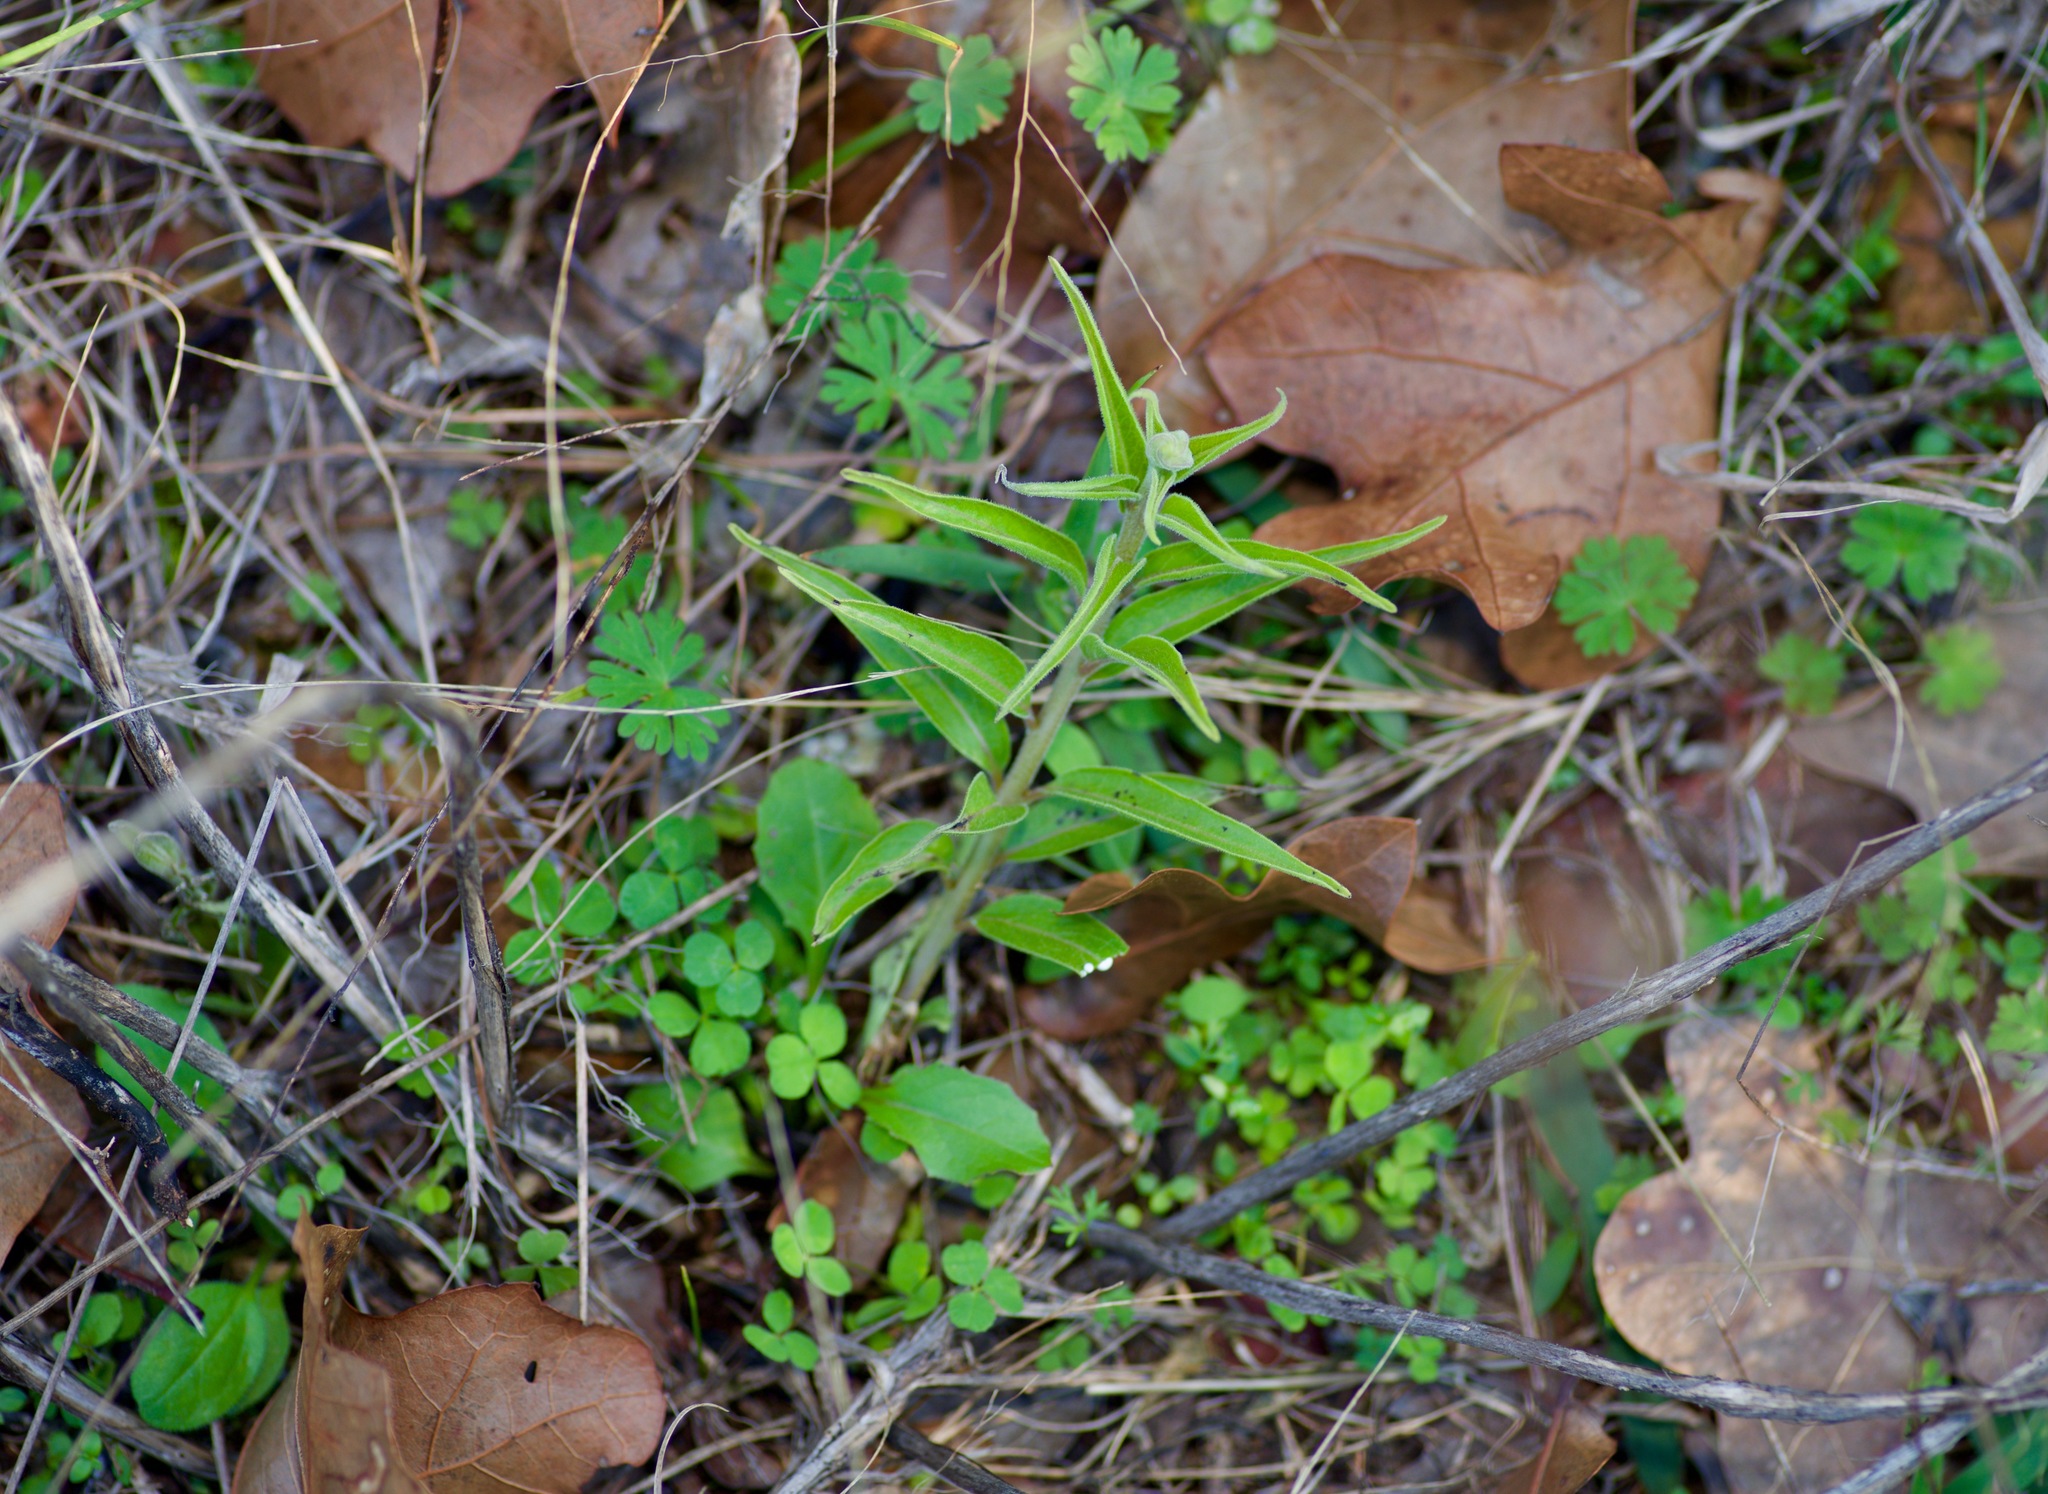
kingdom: Plantae
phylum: Tracheophyta
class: Magnoliopsida
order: Gentianales
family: Apocynaceae
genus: Asclepias
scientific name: Asclepias asperula
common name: Antelope horns
